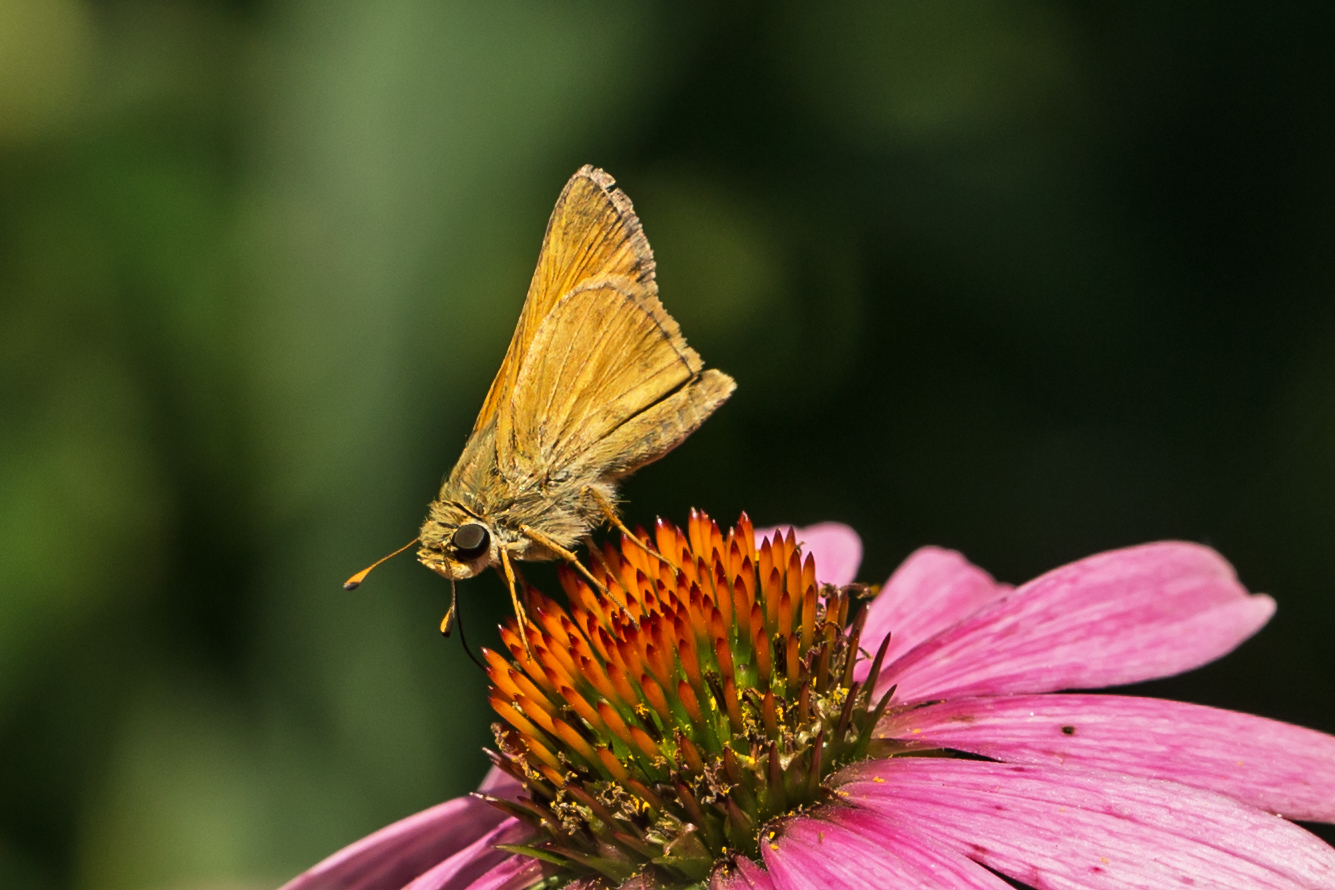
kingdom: Animalia
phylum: Arthropoda
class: Insecta
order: Lepidoptera
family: Hesperiidae
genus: Atalopedes
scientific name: Atalopedes
